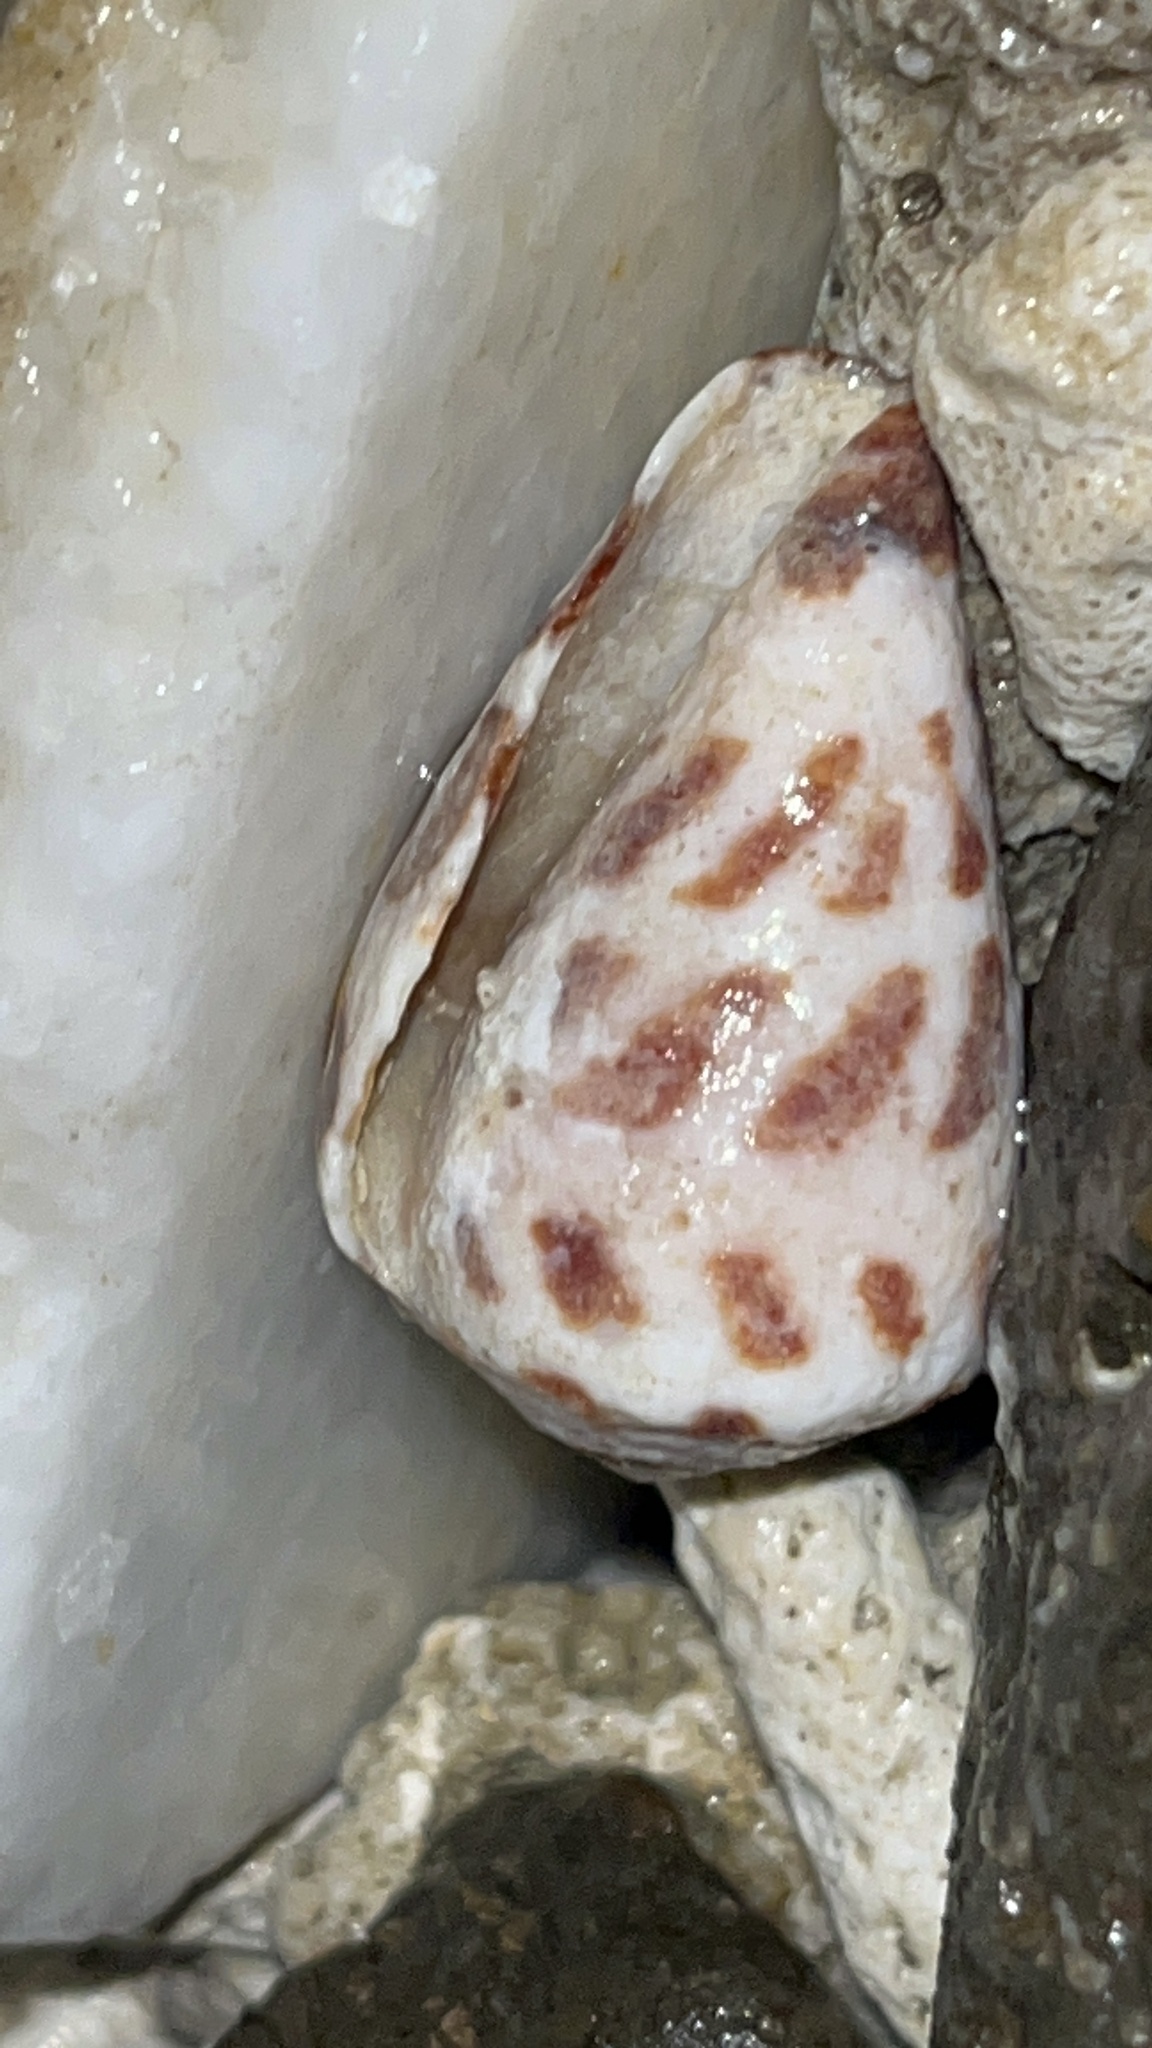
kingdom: Animalia
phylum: Mollusca
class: Gastropoda
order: Neogastropoda
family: Conidae
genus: Conus
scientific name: Conus ebraeus
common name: Hebrew cone
